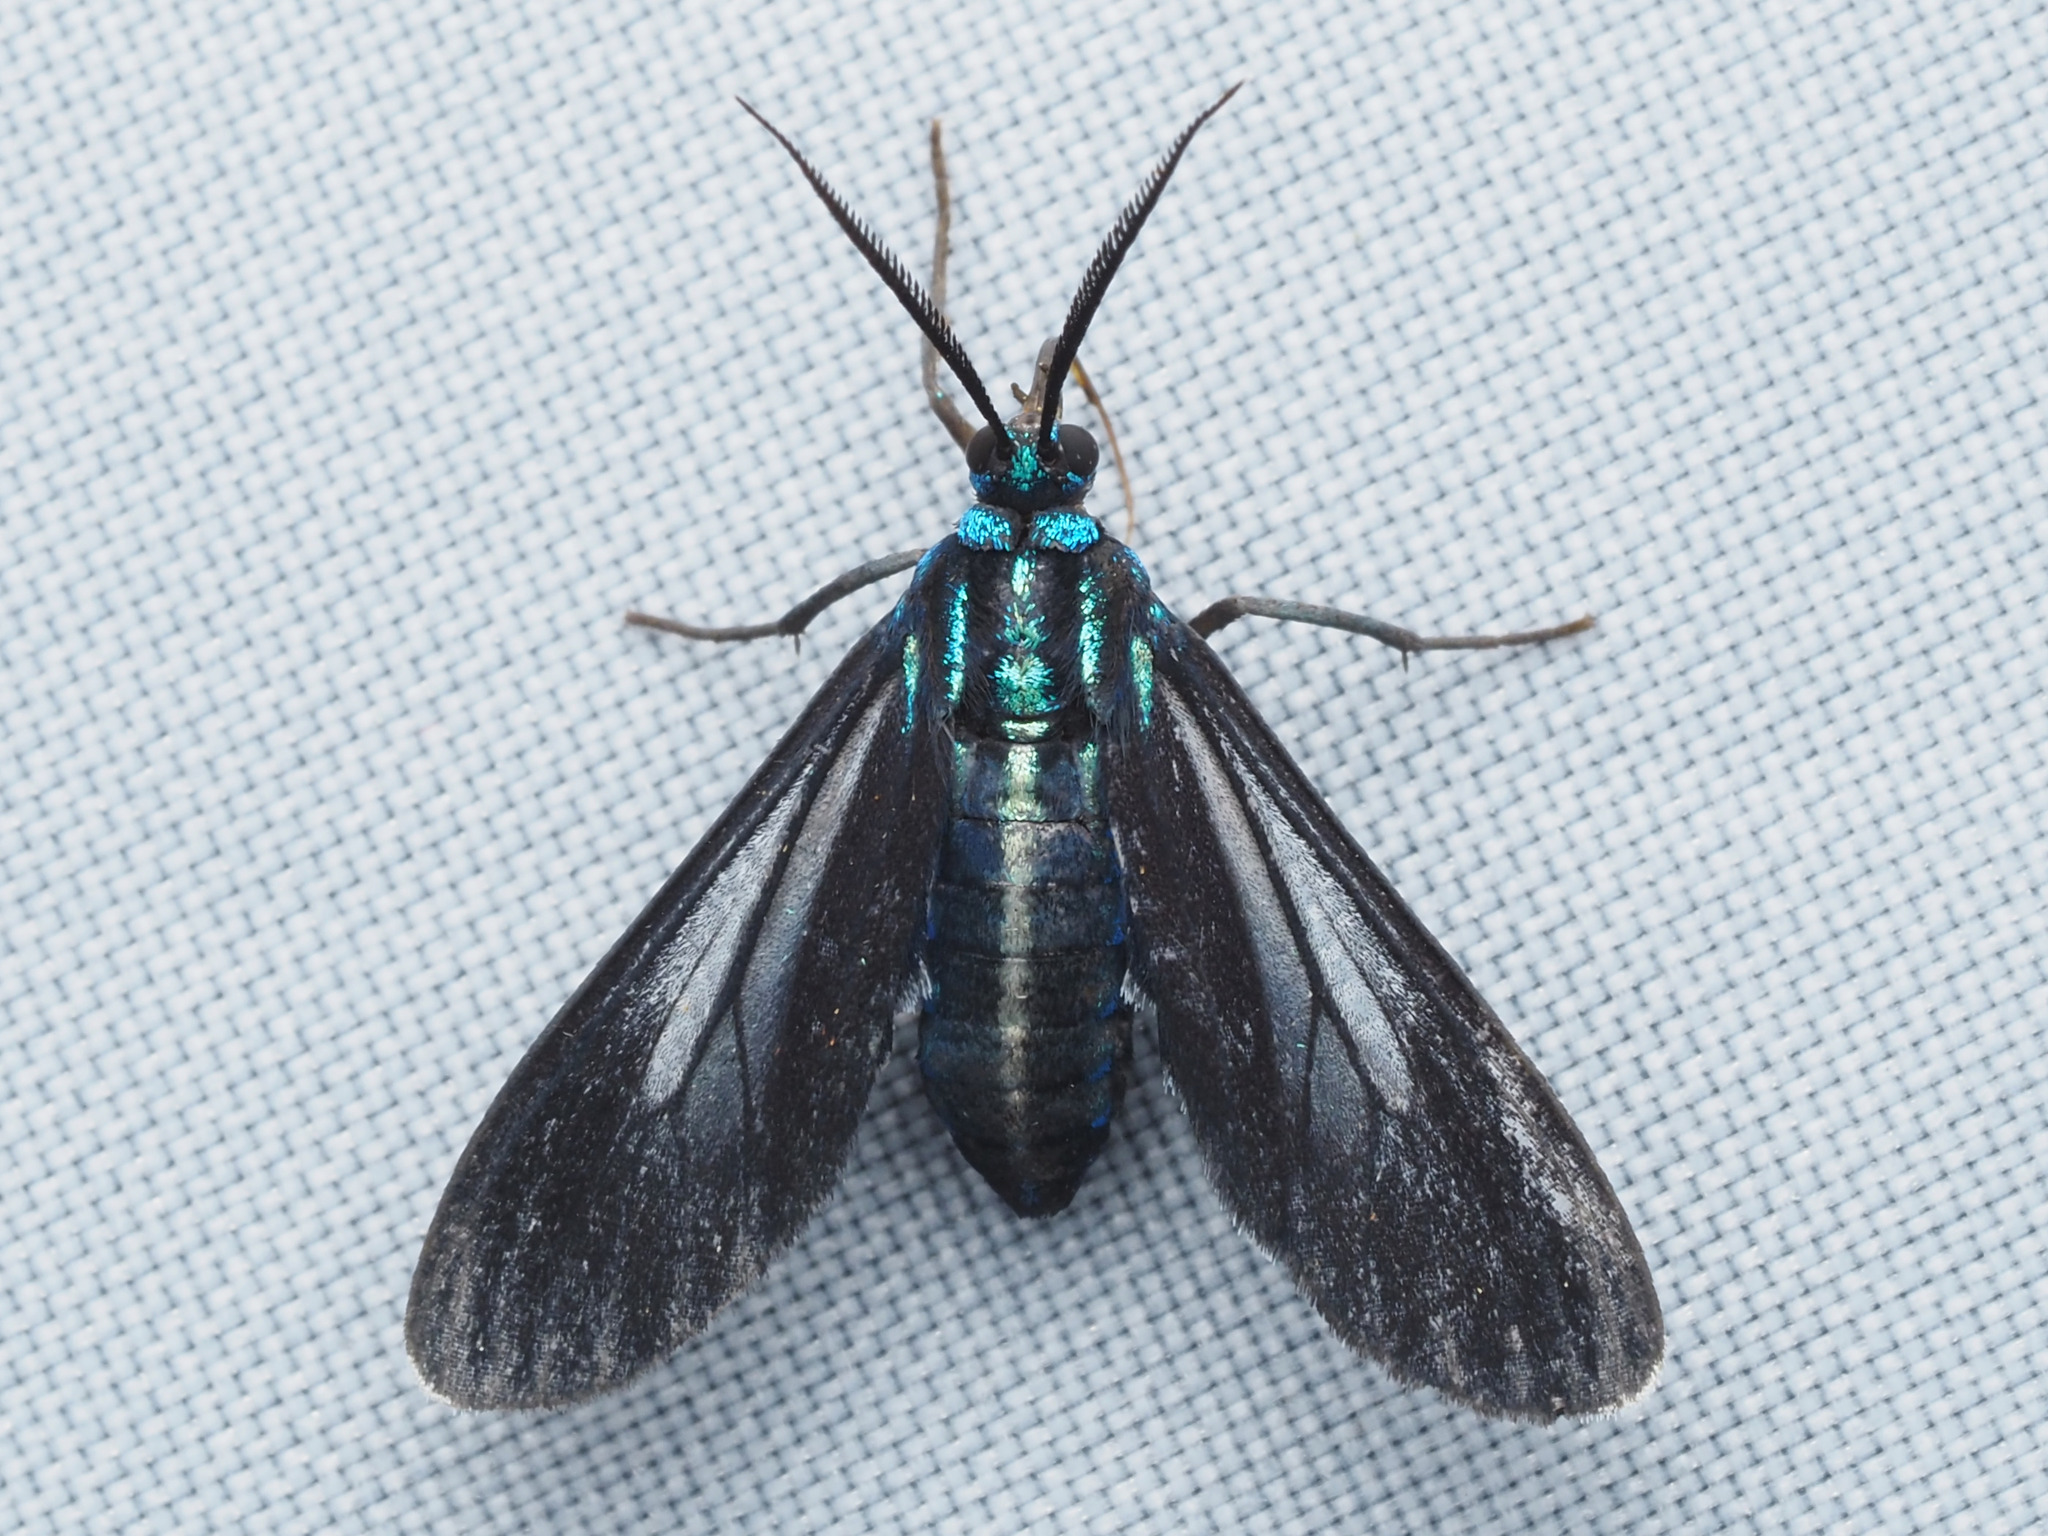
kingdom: Animalia
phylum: Arthropoda
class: Insecta
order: Lepidoptera
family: Erebidae
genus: Uranophora
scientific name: Uranophora leucotela
